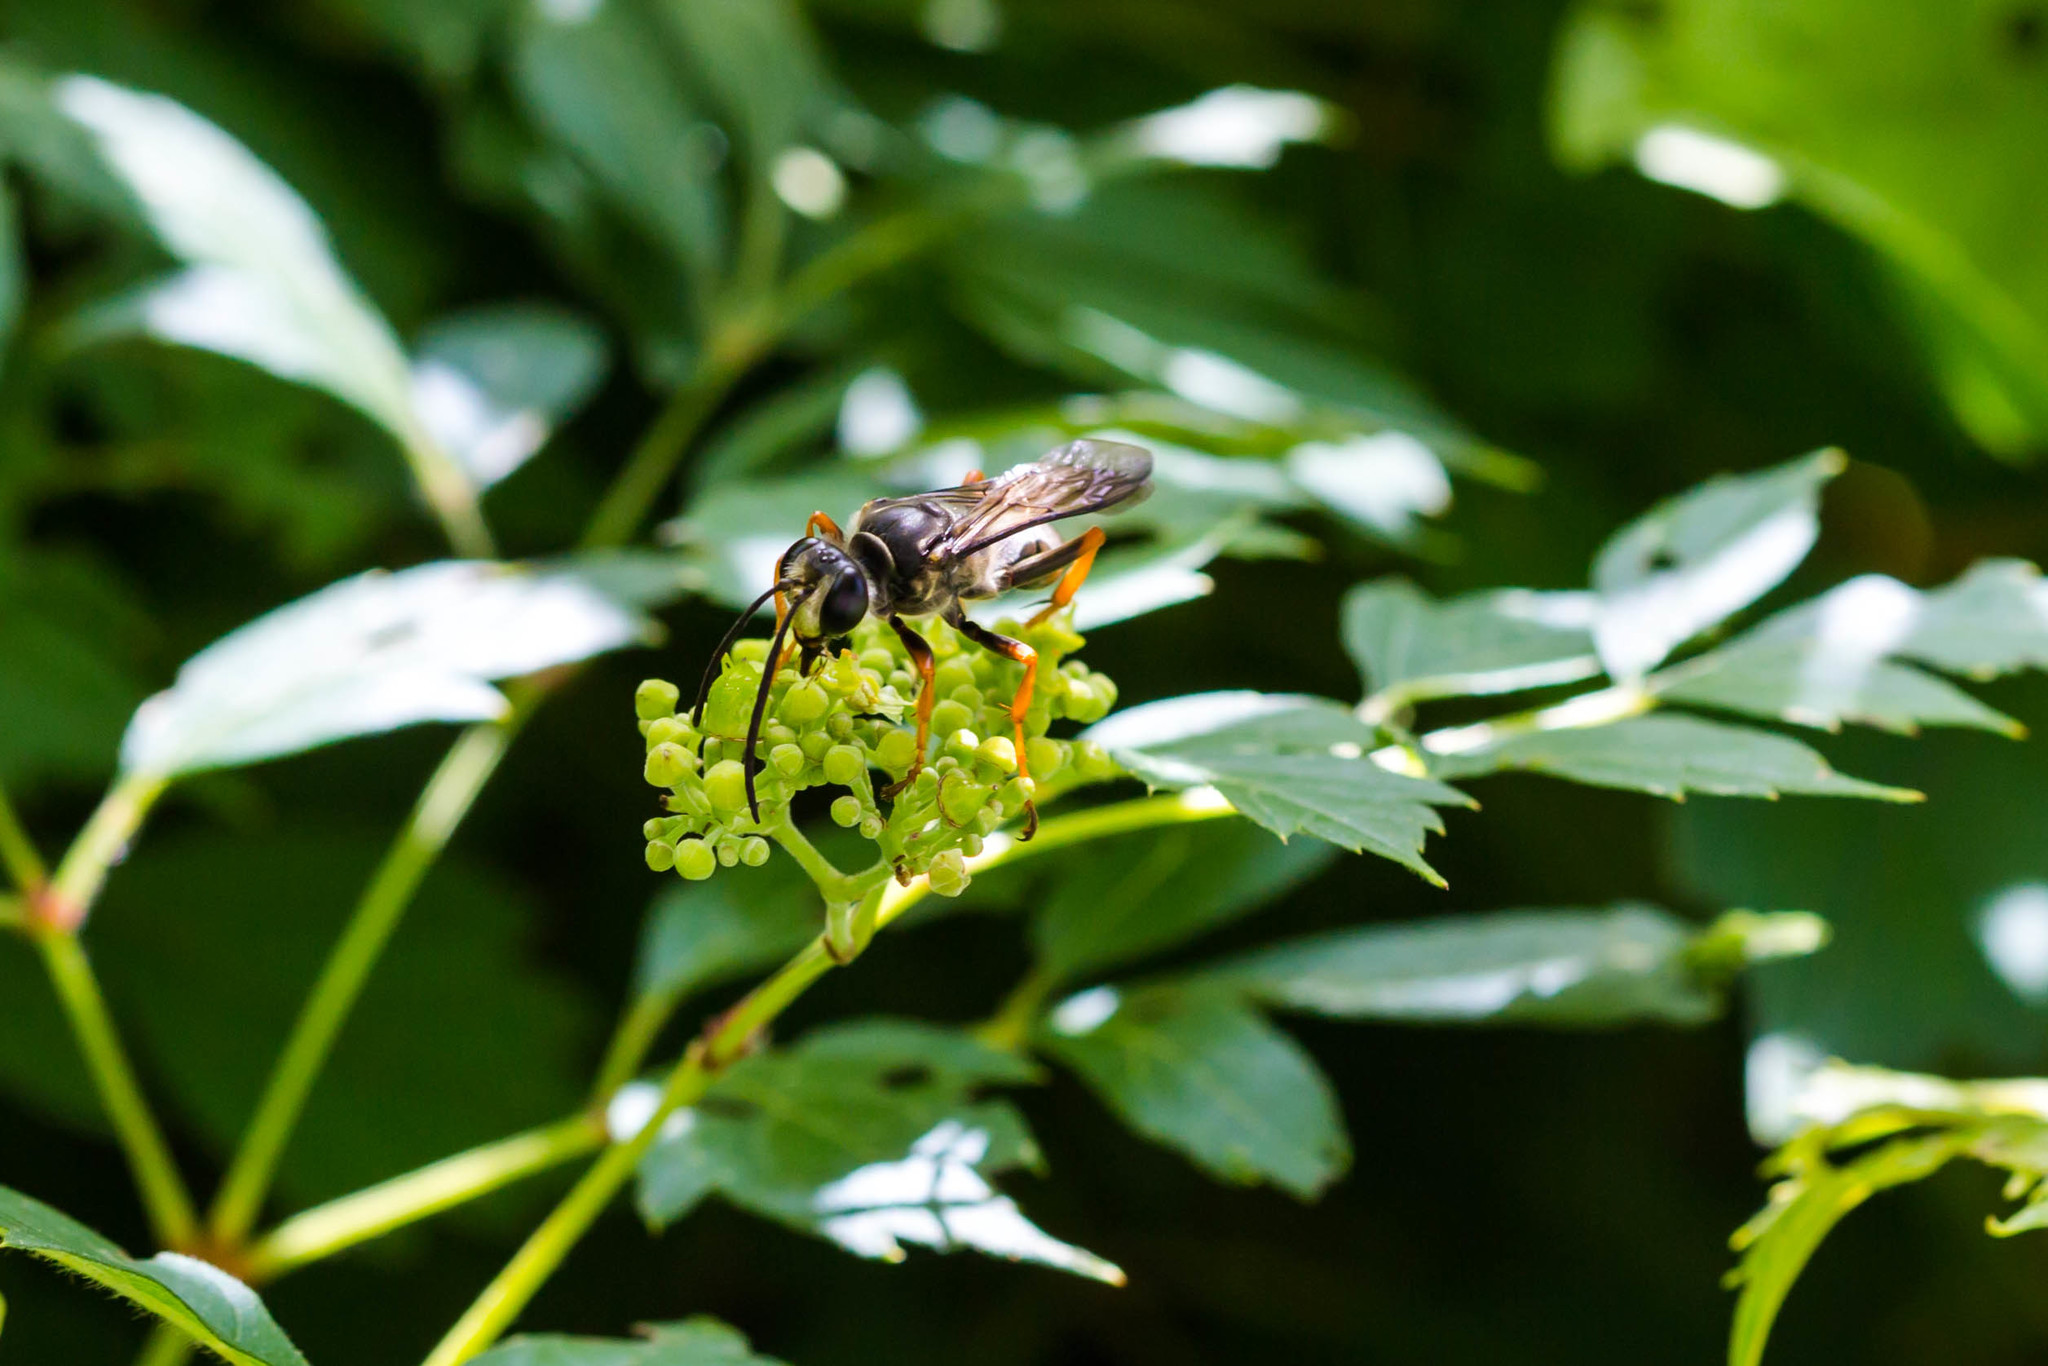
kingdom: Animalia
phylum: Arthropoda
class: Insecta
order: Hymenoptera
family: Sphecidae
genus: Sphex
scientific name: Sphex nudus
